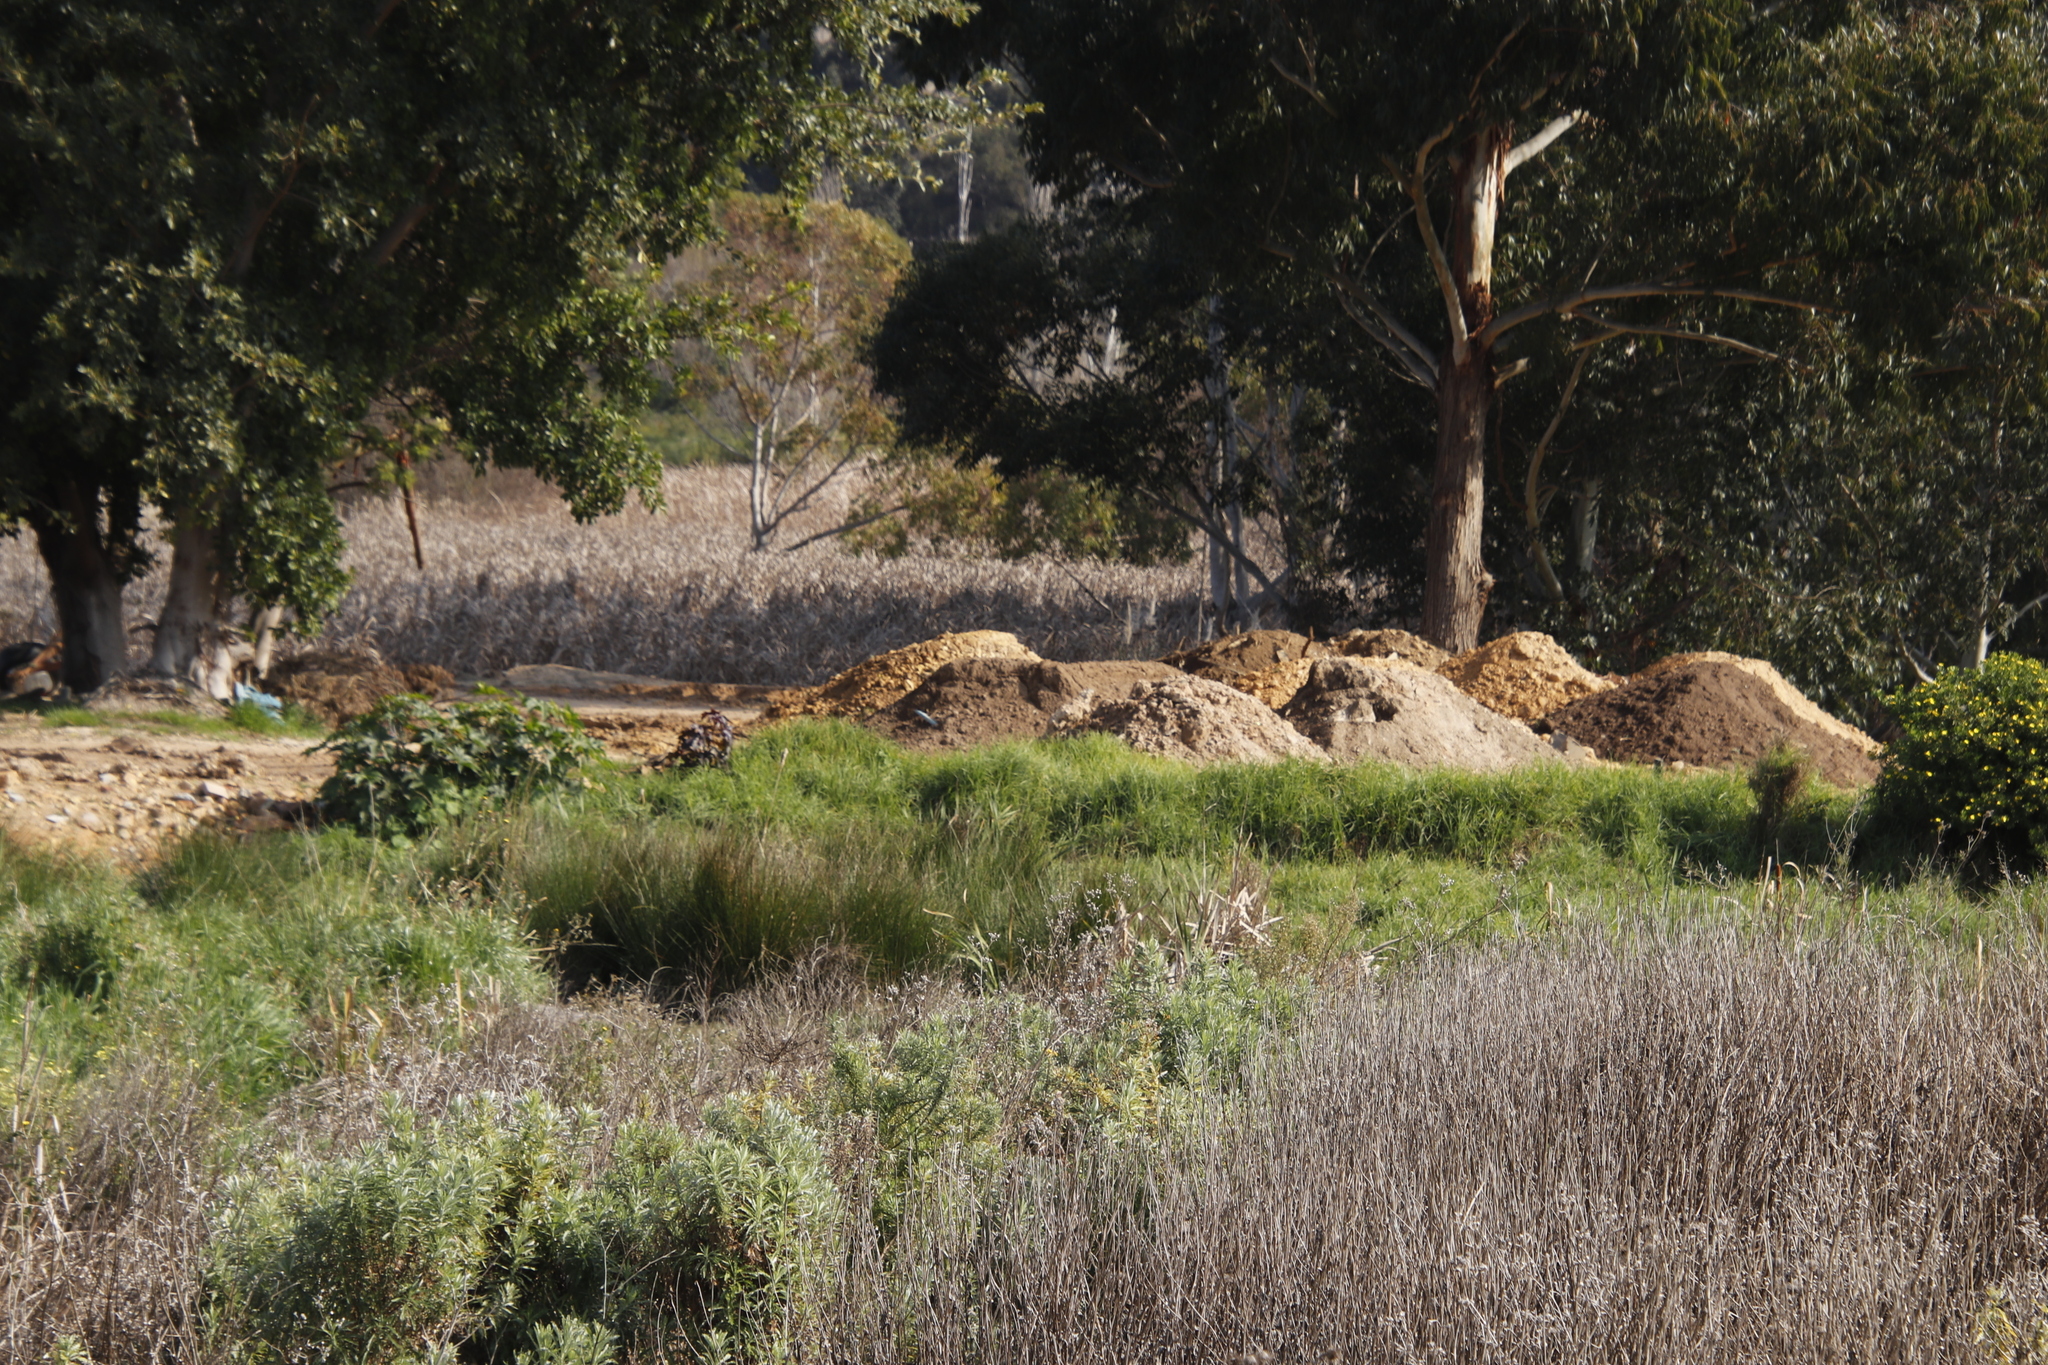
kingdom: Plantae
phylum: Tracheophyta
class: Liliopsida
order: Poales
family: Typhaceae
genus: Typha
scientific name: Typha capensis
